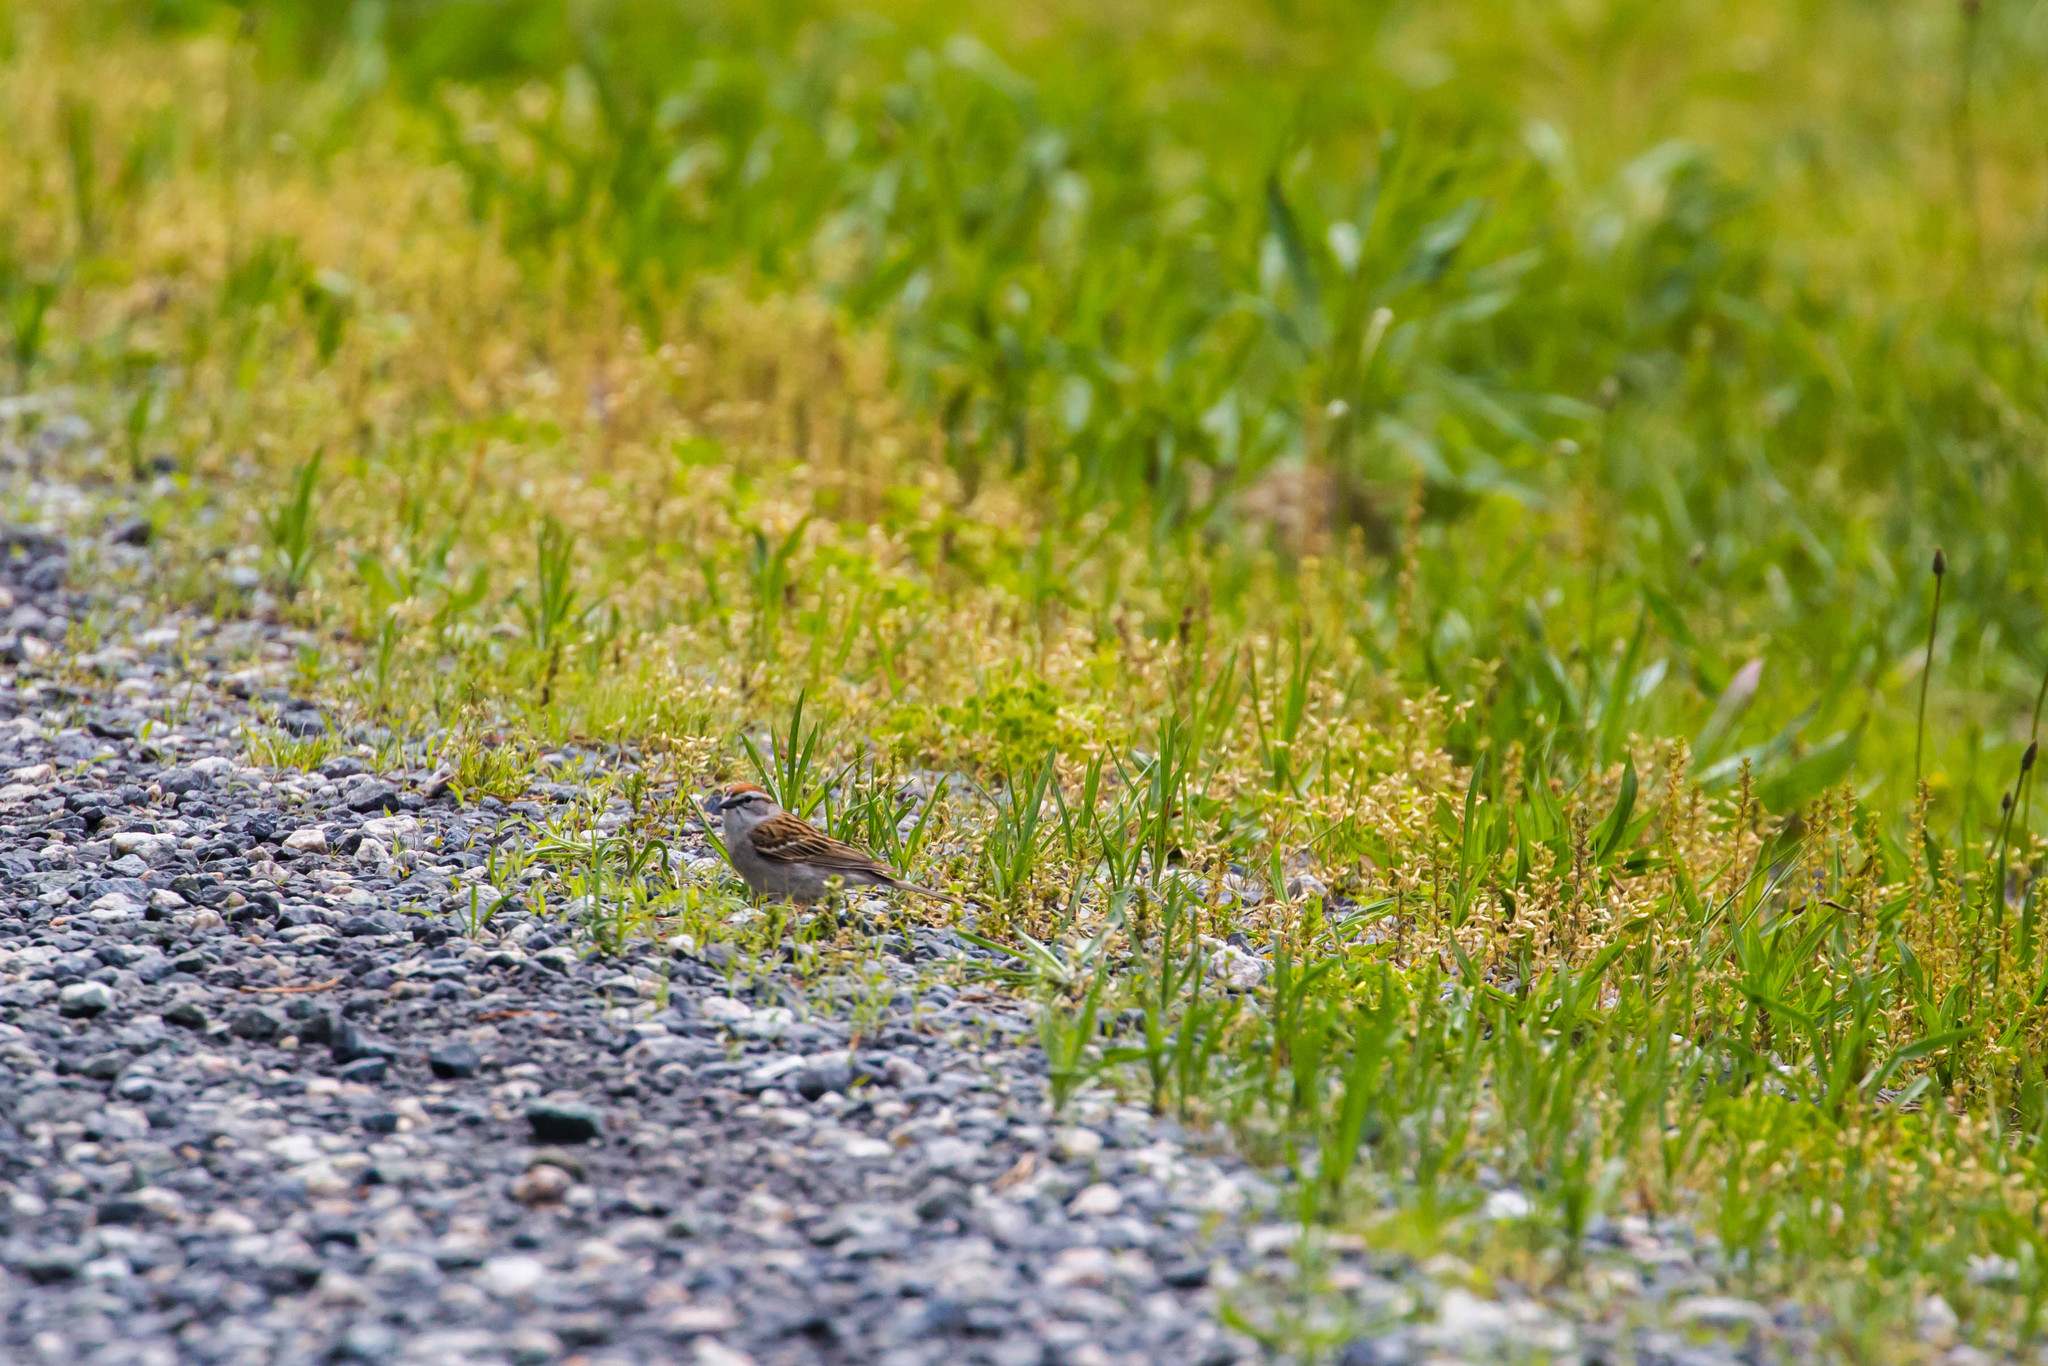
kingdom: Animalia
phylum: Chordata
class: Aves
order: Passeriformes
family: Passerellidae
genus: Spizella
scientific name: Spizella passerina
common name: Chipping sparrow
